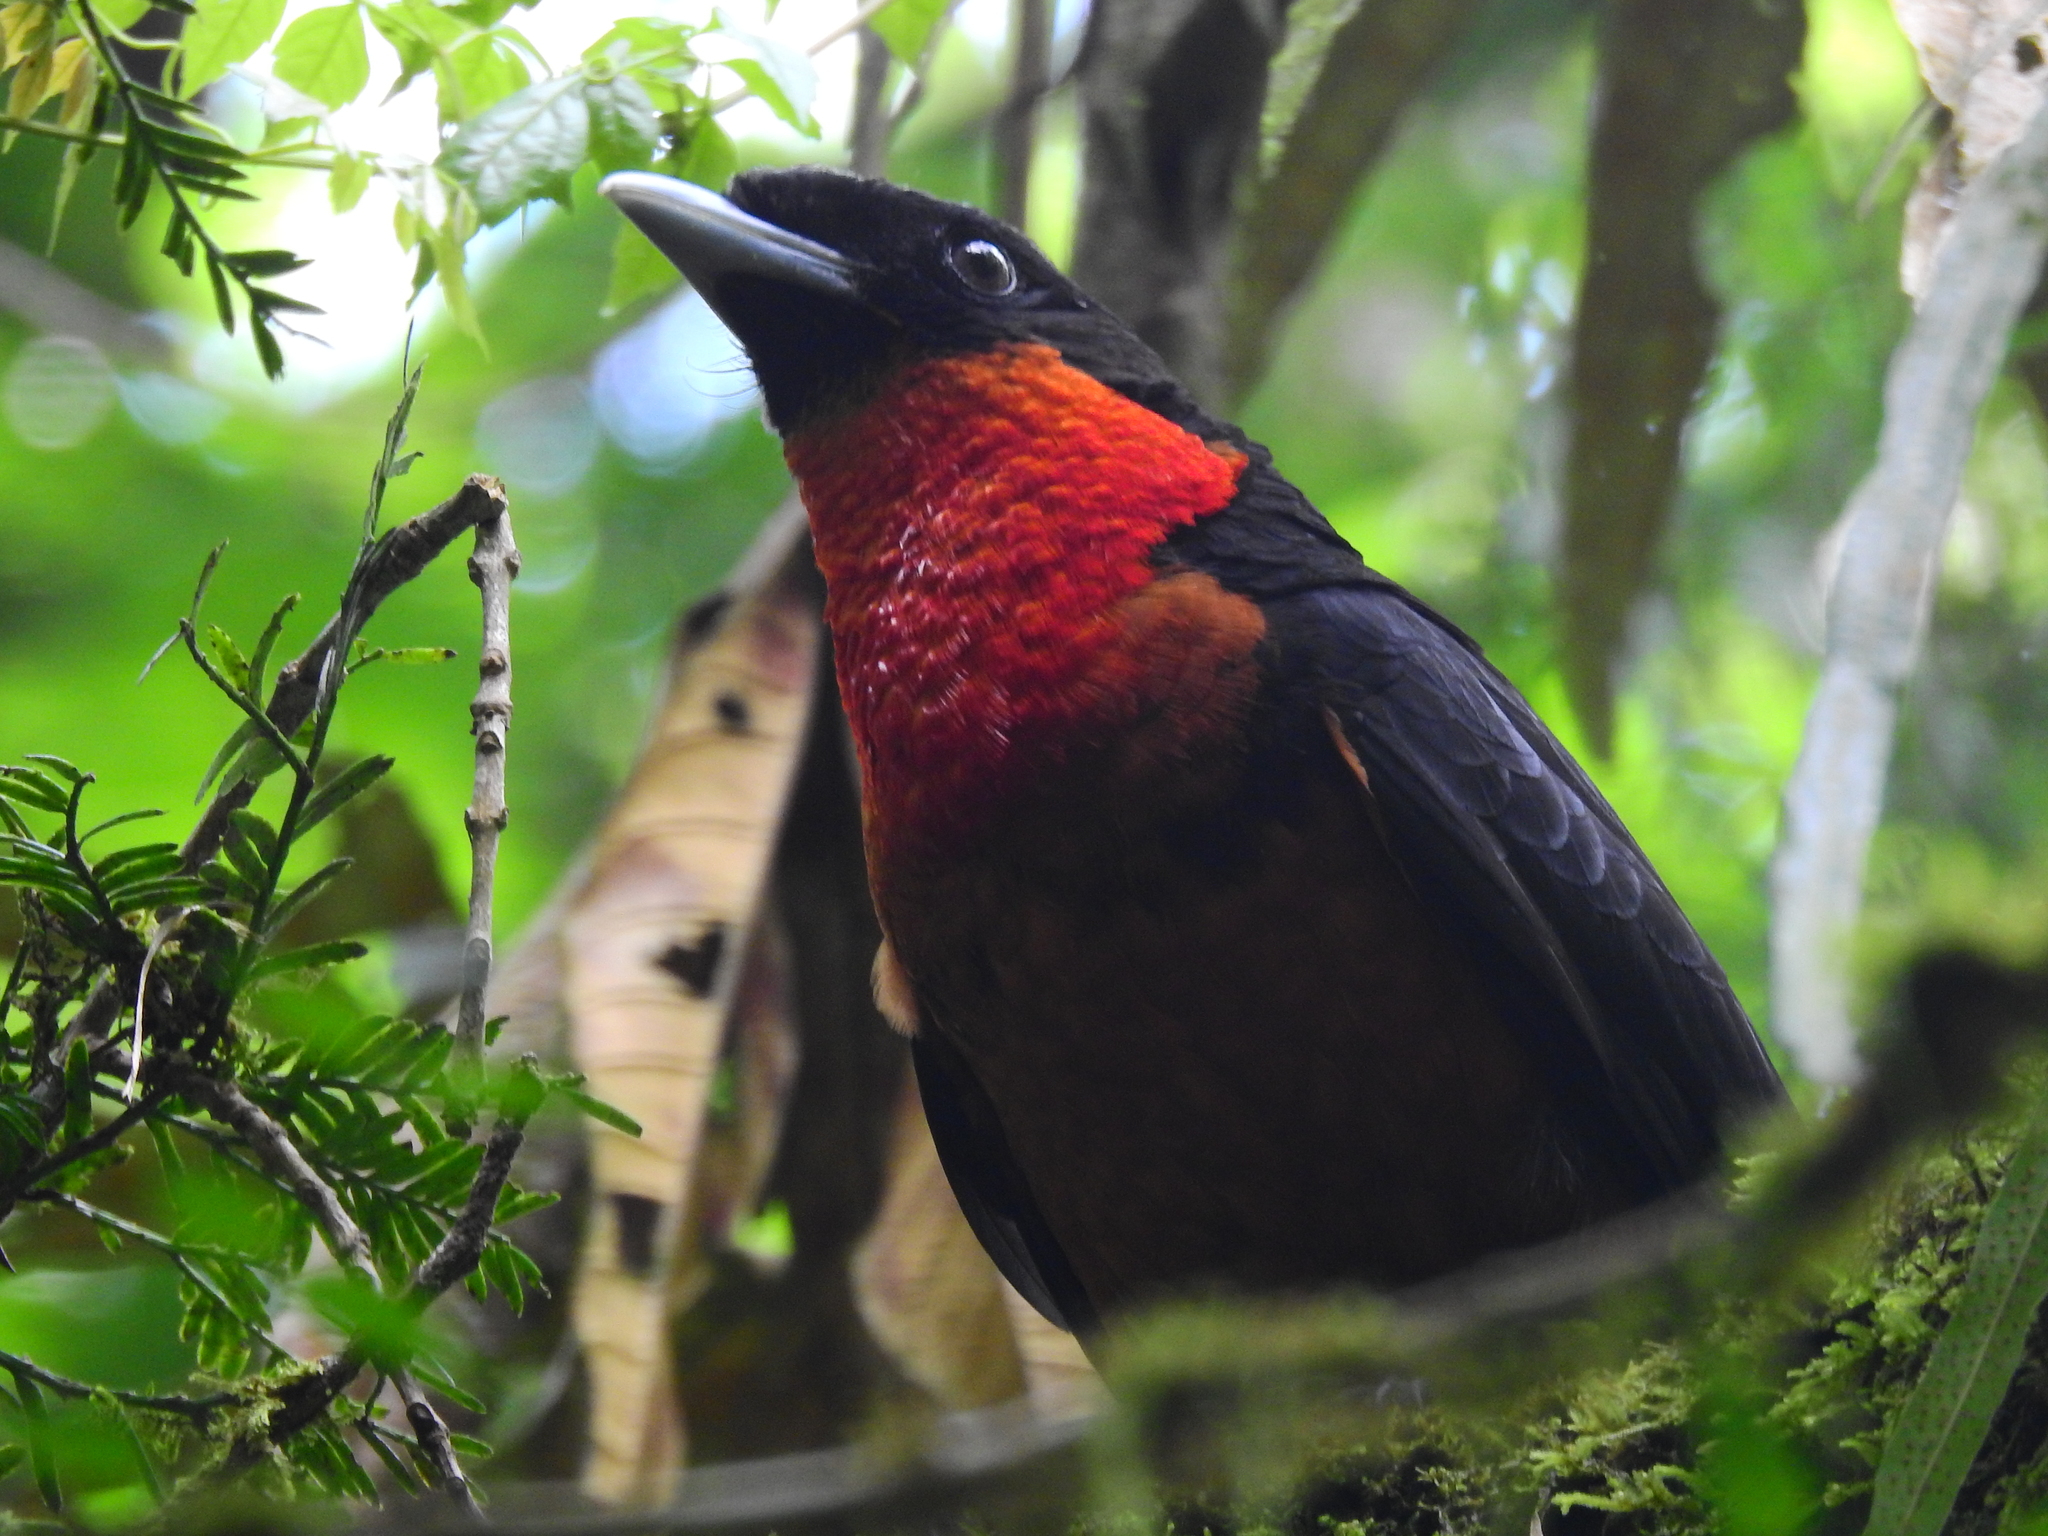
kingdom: Animalia
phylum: Chordata
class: Aves
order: Passeriformes
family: Cotingidae
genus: Pyroderus
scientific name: Pyroderus scutatus
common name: Red-ruffed fruitcrow
